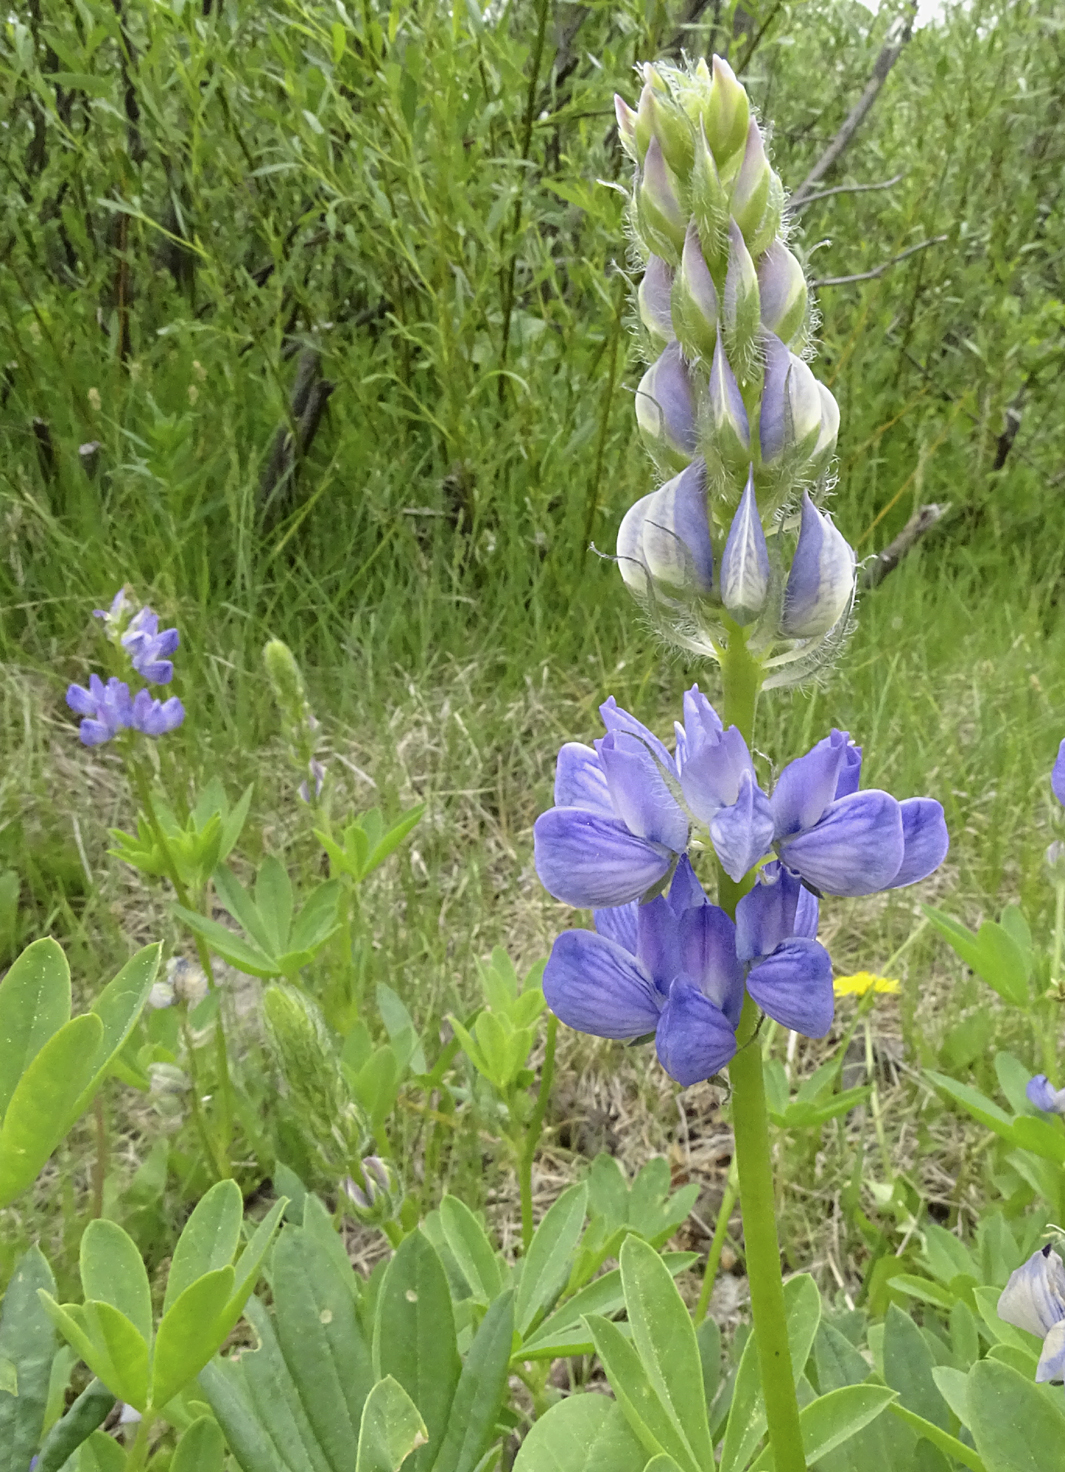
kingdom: Plantae
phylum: Tracheophyta
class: Magnoliopsida
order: Fabales
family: Fabaceae
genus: Lupinus
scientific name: Lupinus burkei
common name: Largeleaf lupine
